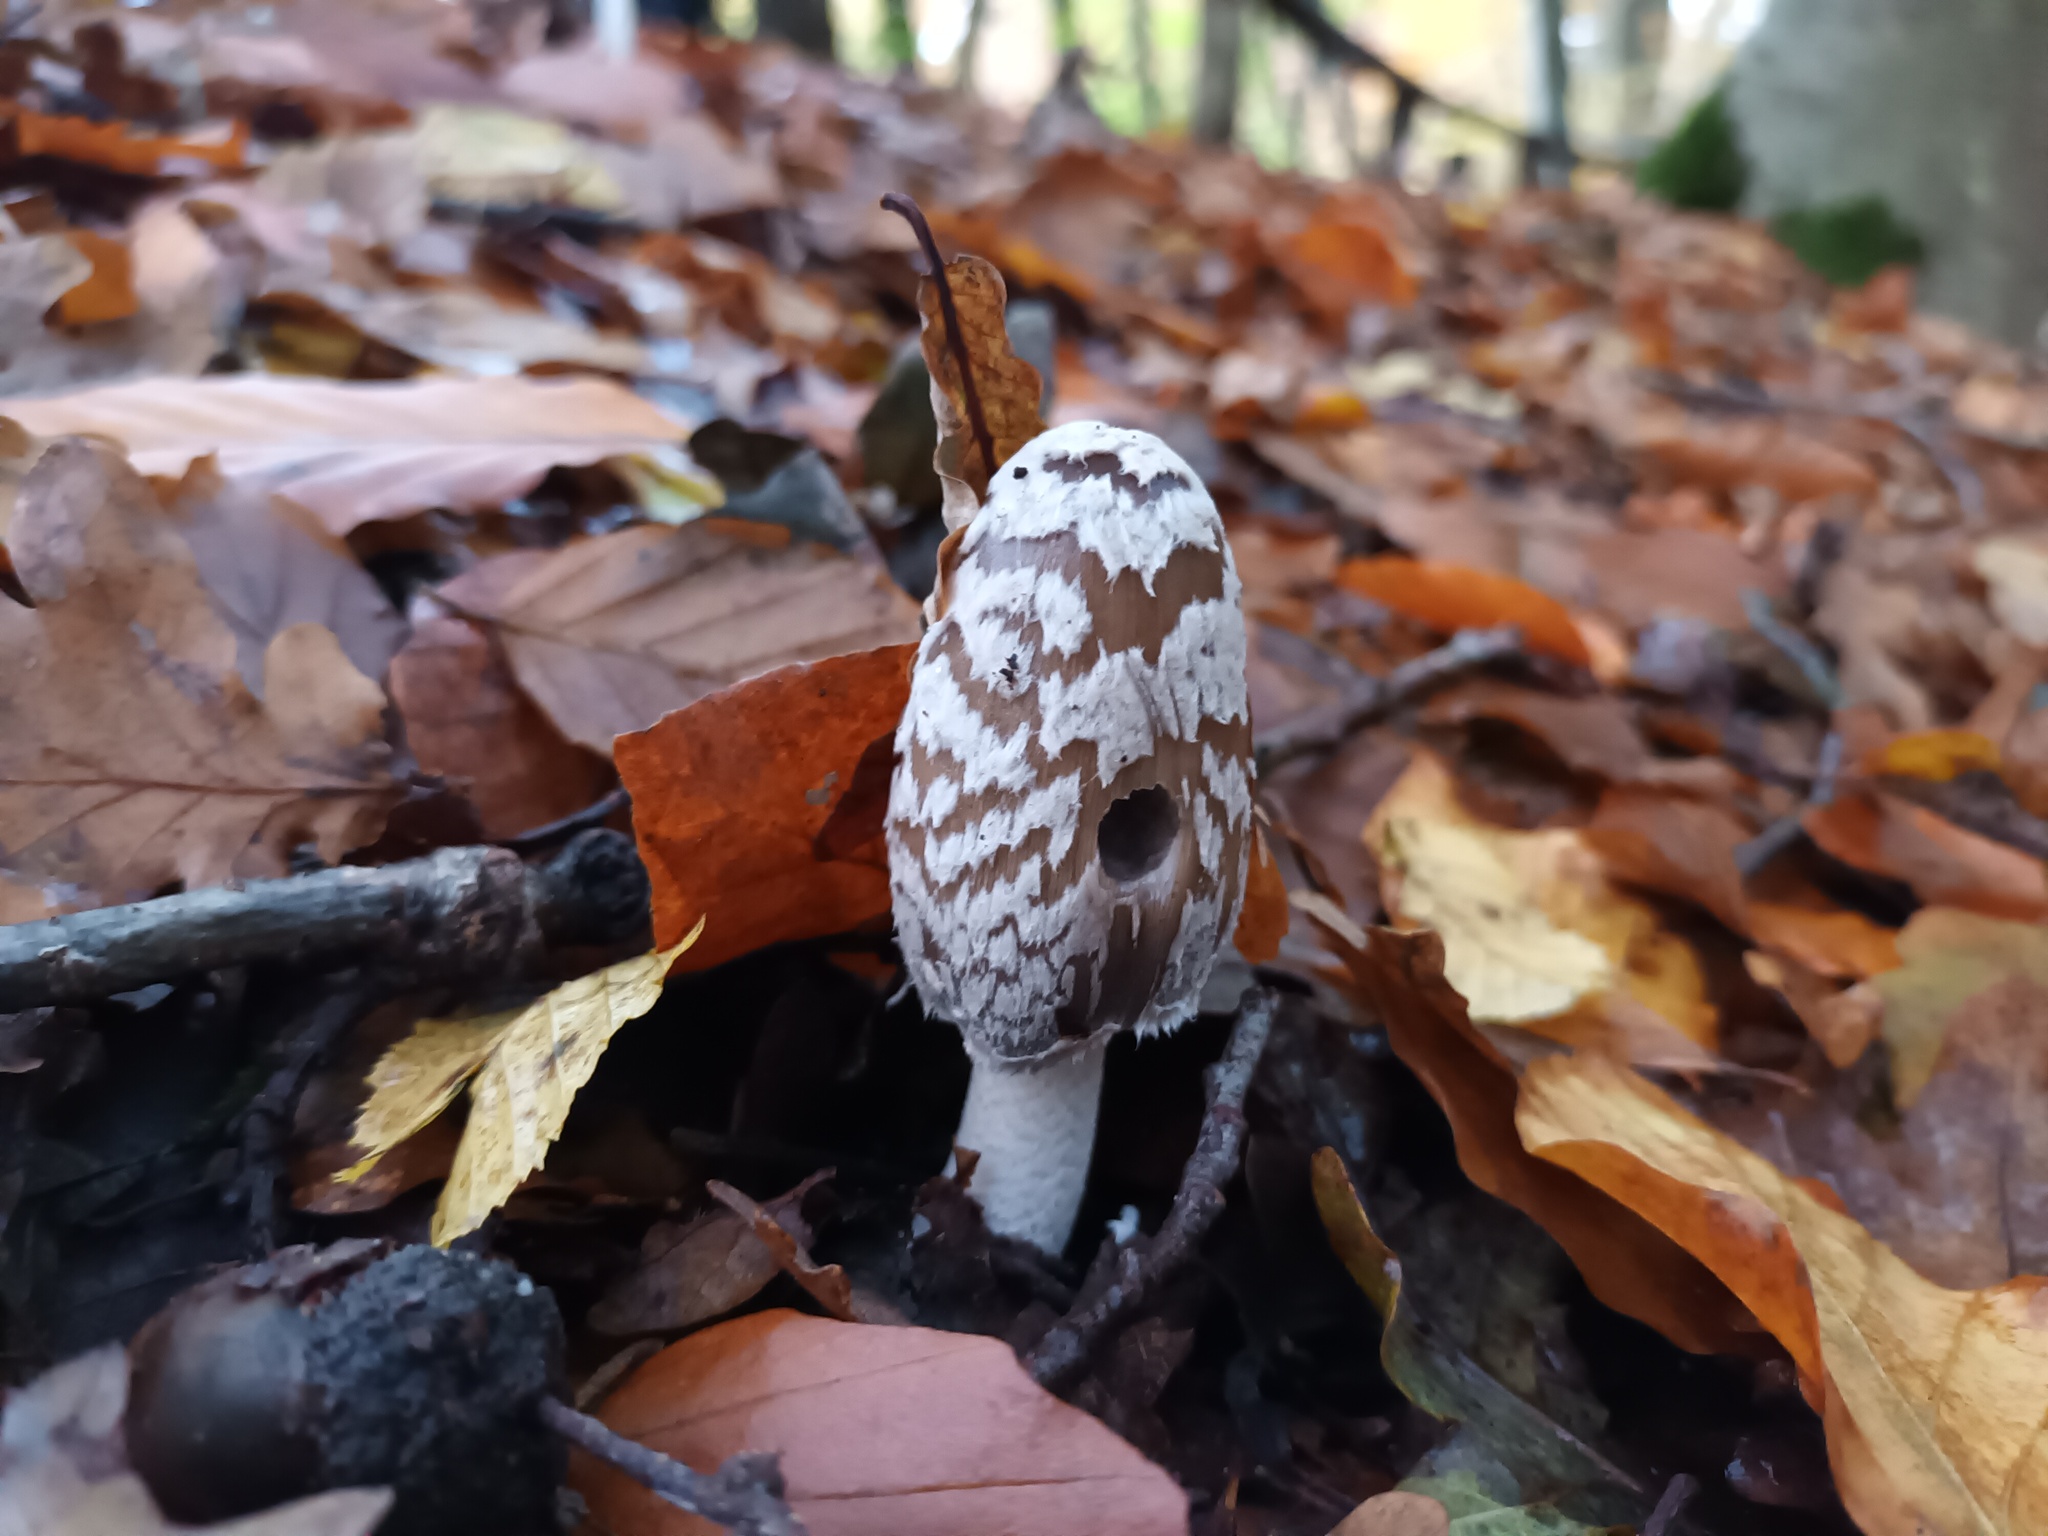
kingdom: Fungi
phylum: Basidiomycota
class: Agaricomycetes
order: Agaricales
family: Psathyrellaceae
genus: Coprinopsis
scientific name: Coprinopsis picacea
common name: Magpie inkcap
